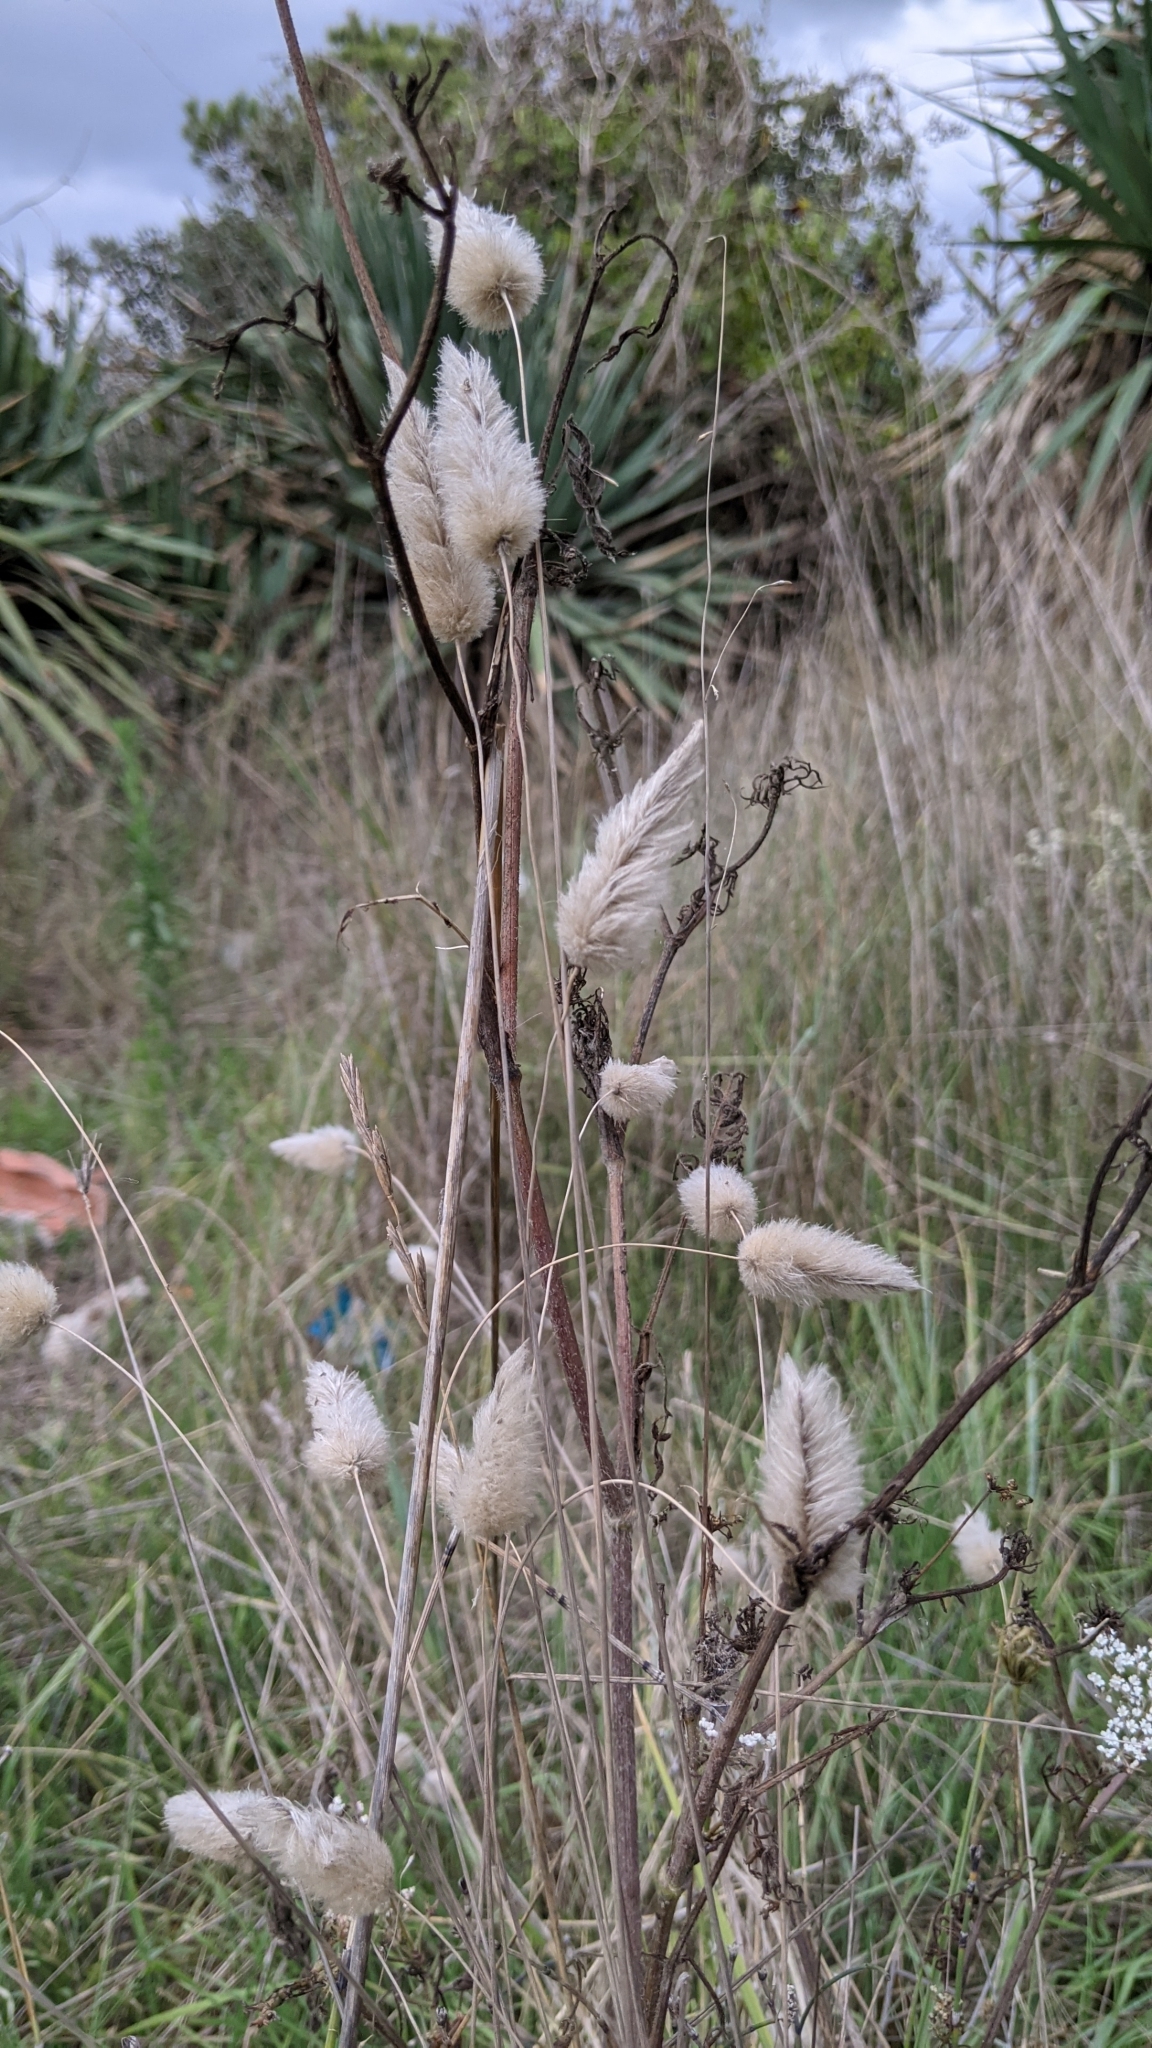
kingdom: Plantae
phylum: Tracheophyta
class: Liliopsida
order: Poales
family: Poaceae
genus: Lagurus
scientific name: Lagurus ovatus
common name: Hare's-tail
